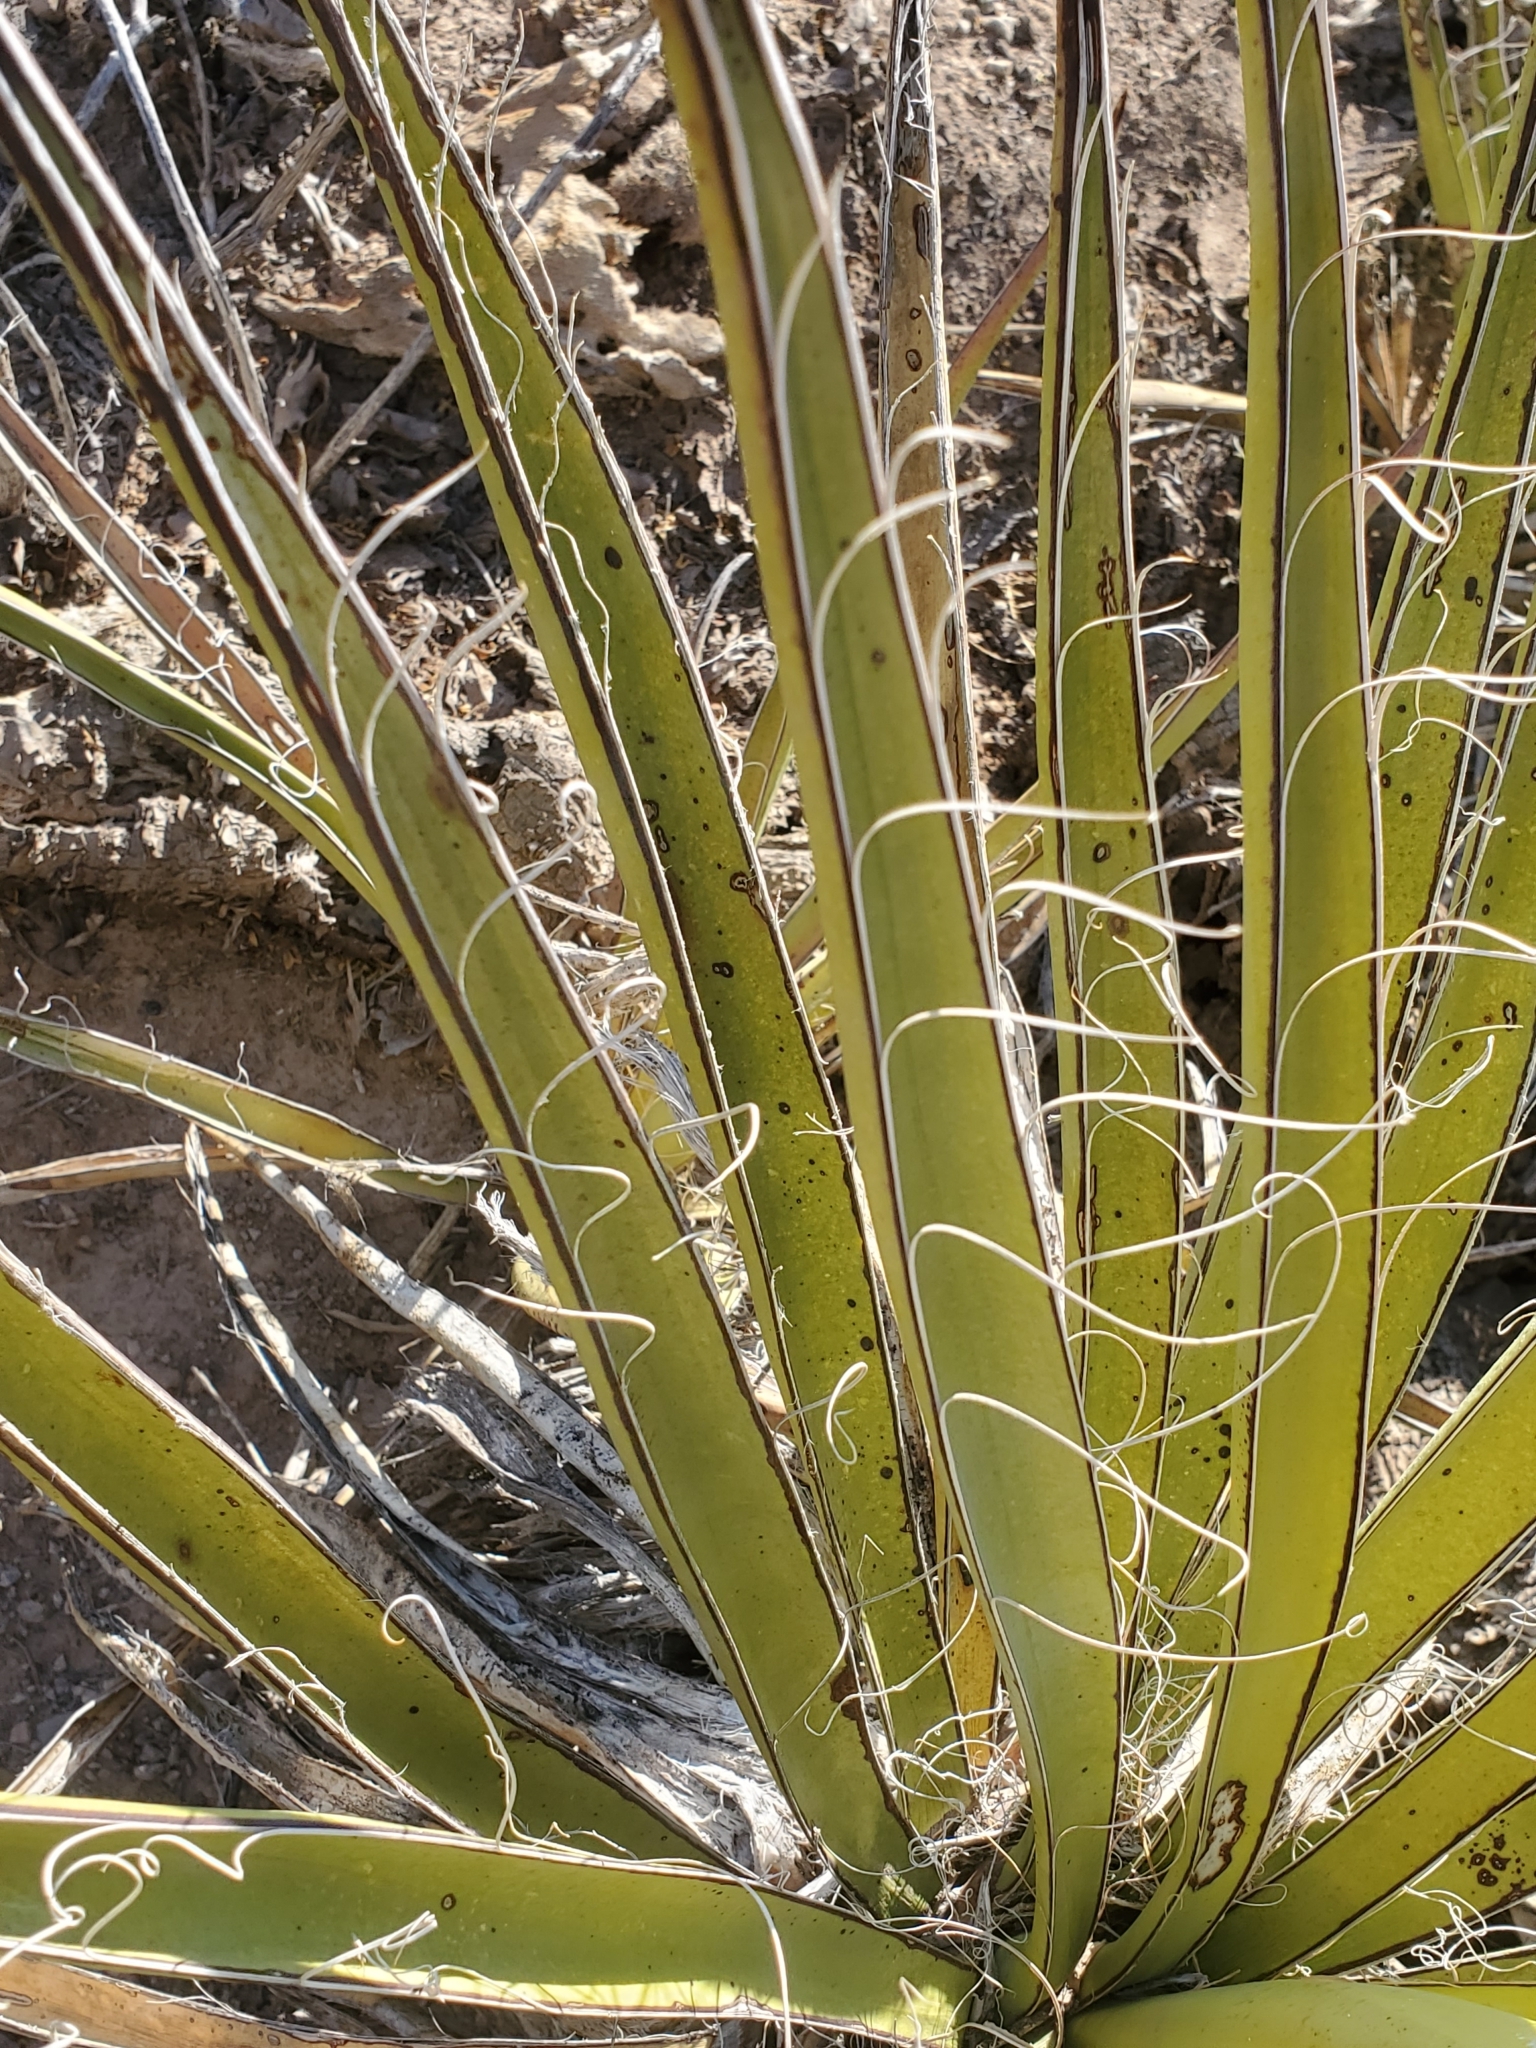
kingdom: Plantae
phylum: Tracheophyta
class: Liliopsida
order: Asparagales
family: Asparagaceae
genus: Yucca
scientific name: Yucca treculiana
